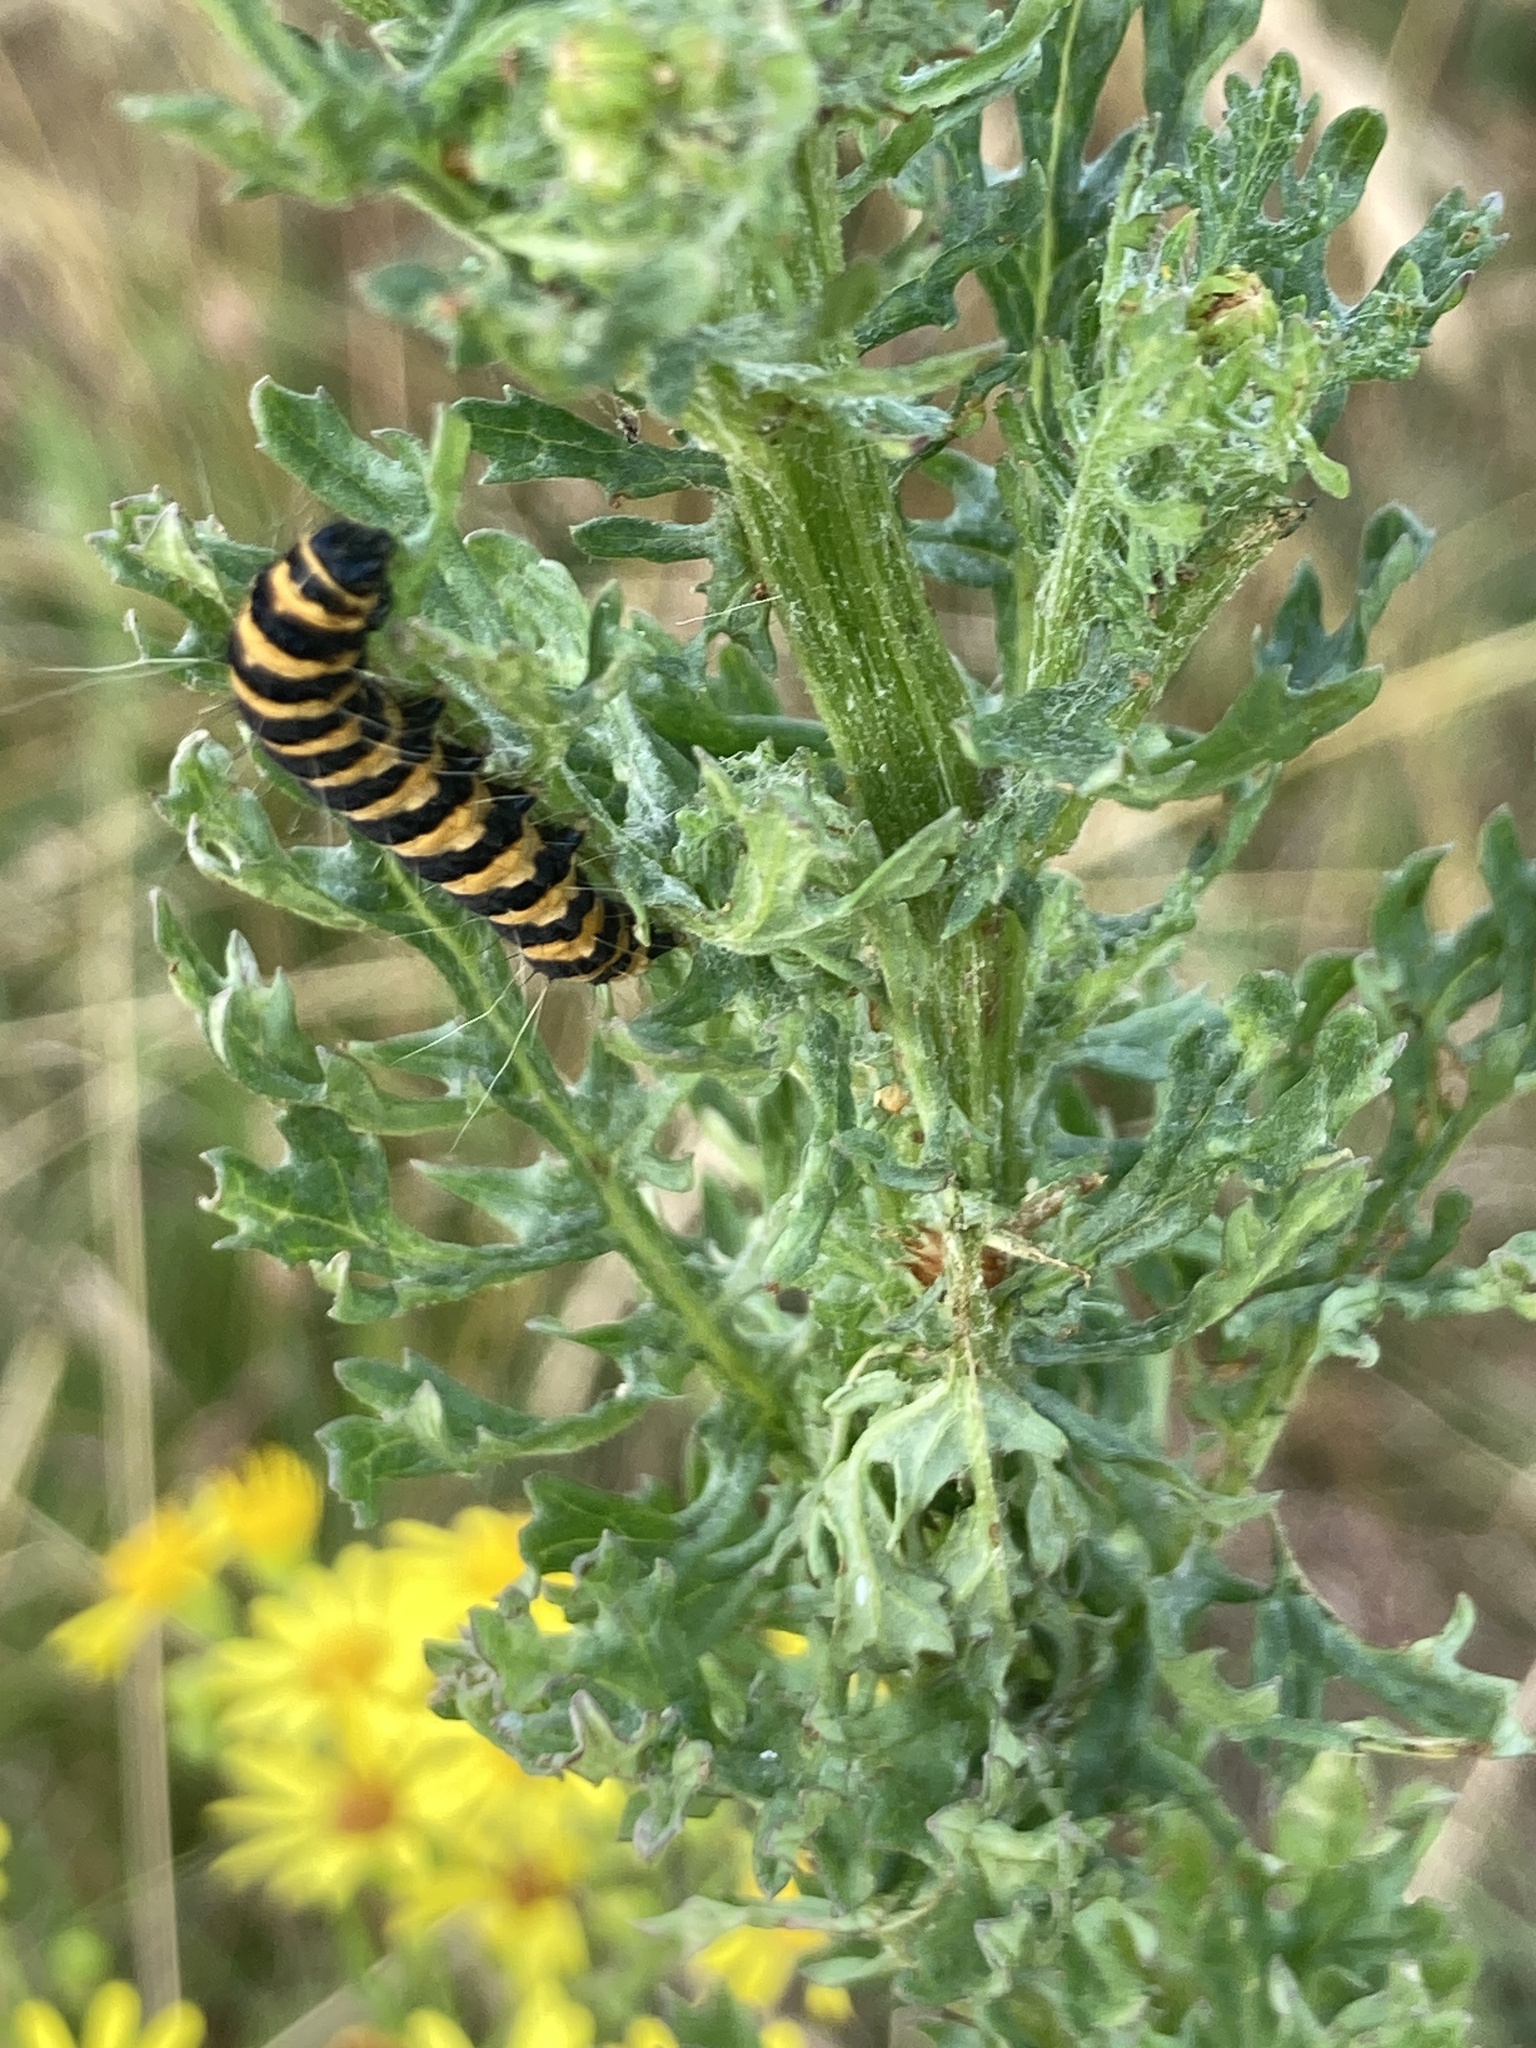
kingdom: Animalia
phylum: Arthropoda
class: Insecta
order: Lepidoptera
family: Erebidae
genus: Tyria
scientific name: Tyria jacobaeae
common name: Cinnabar
